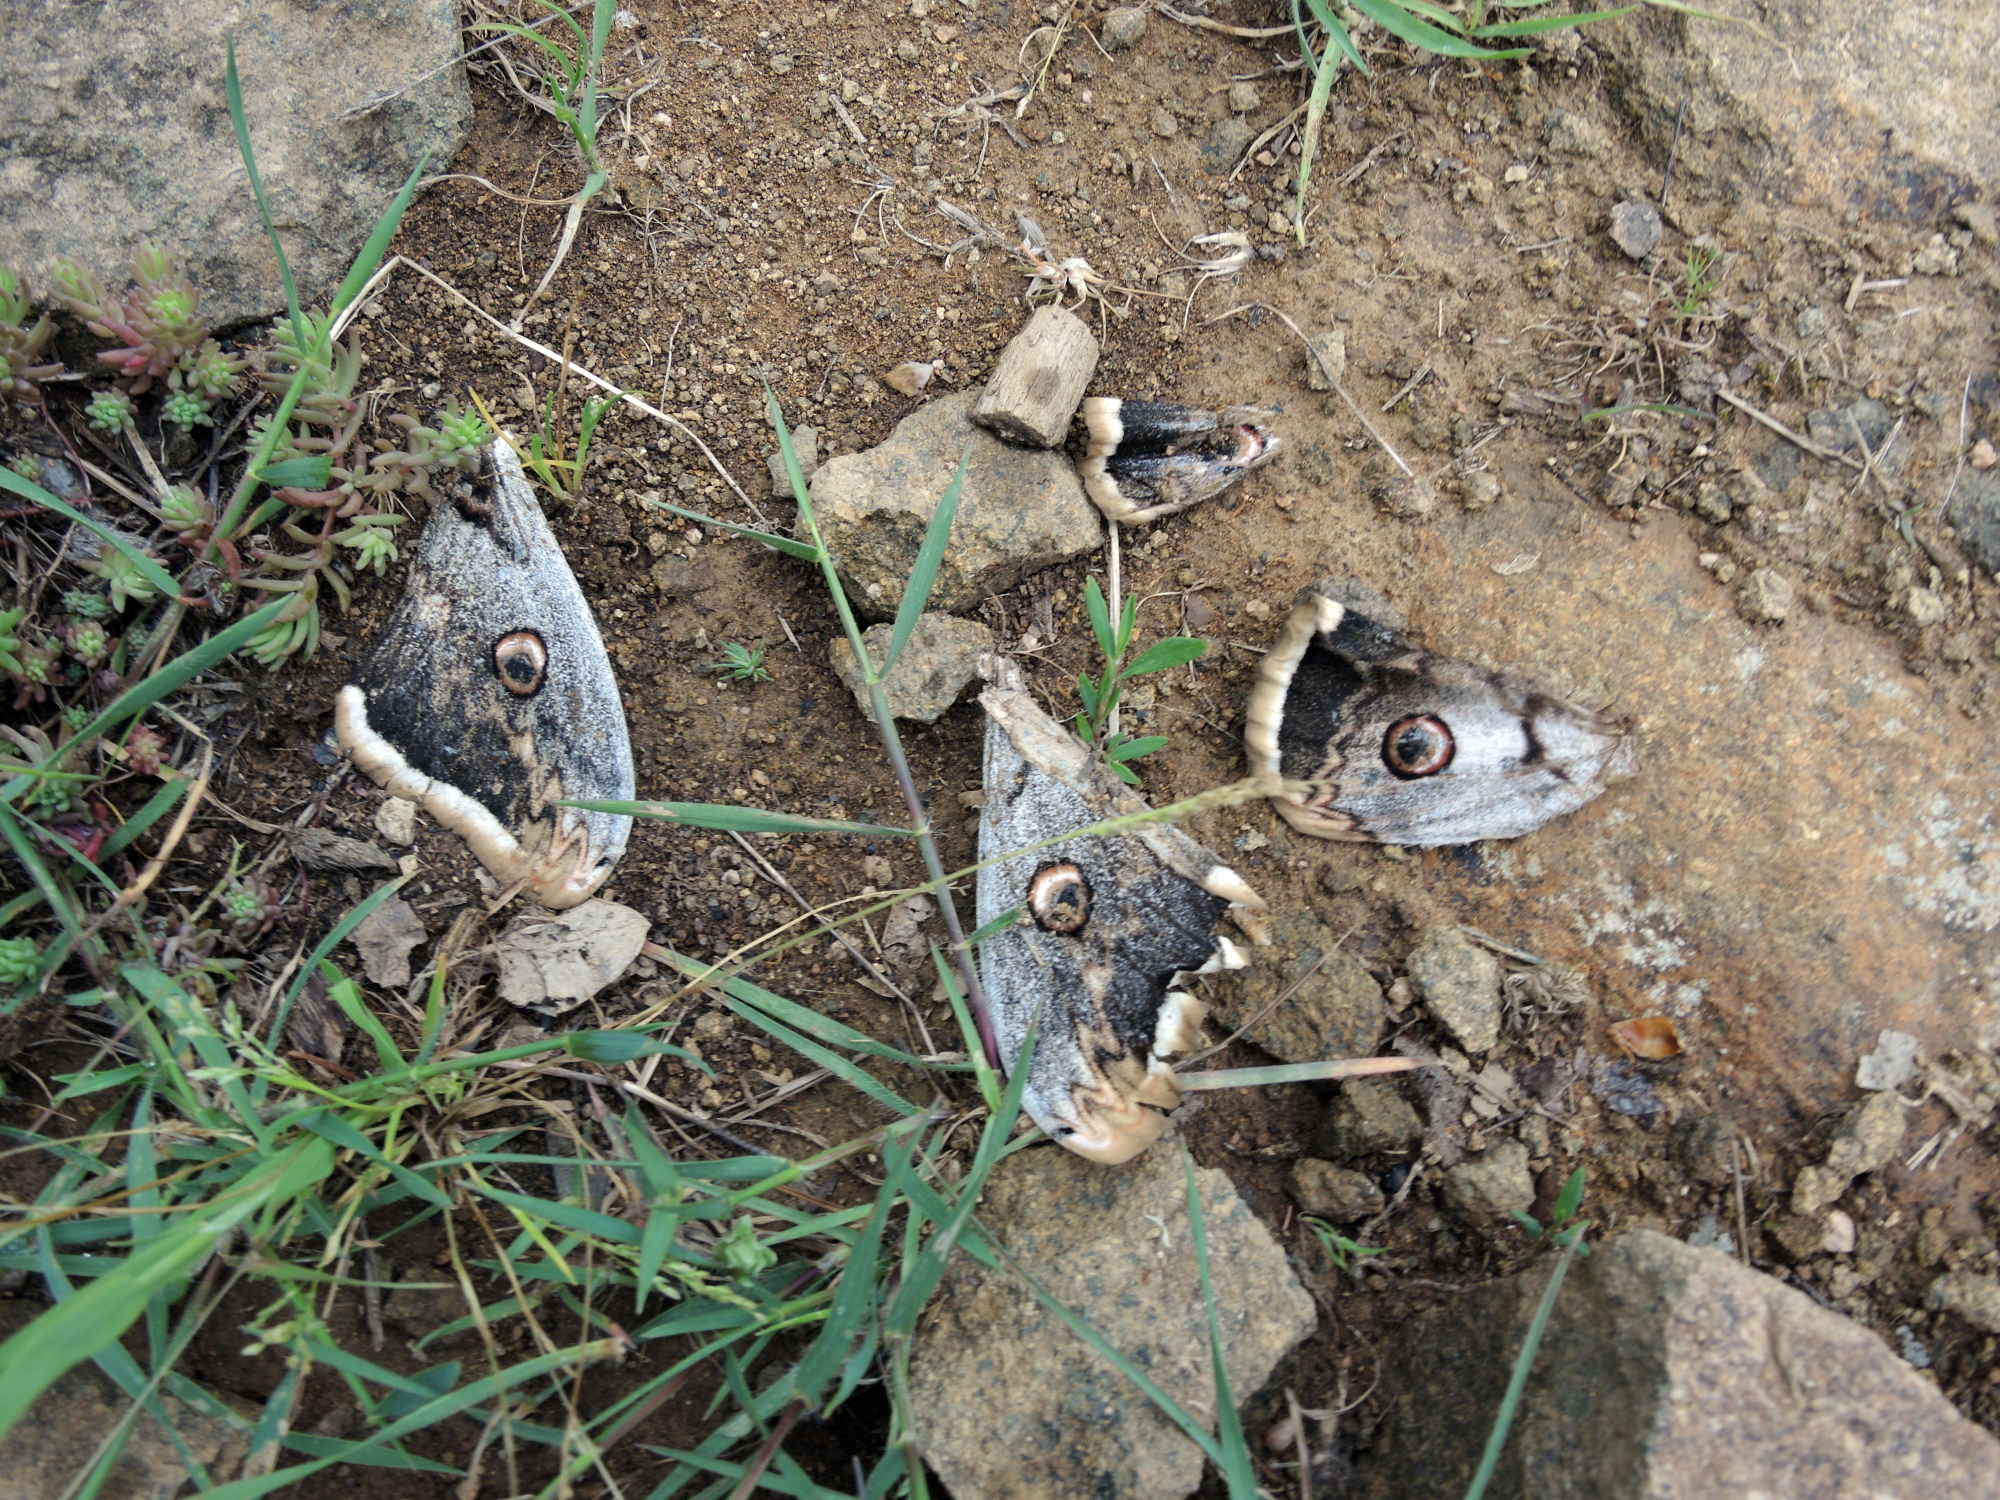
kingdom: Animalia
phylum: Arthropoda
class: Insecta
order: Lepidoptera
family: Saturniidae
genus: Saturnia
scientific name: Saturnia pyri
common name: Great peacock moth
